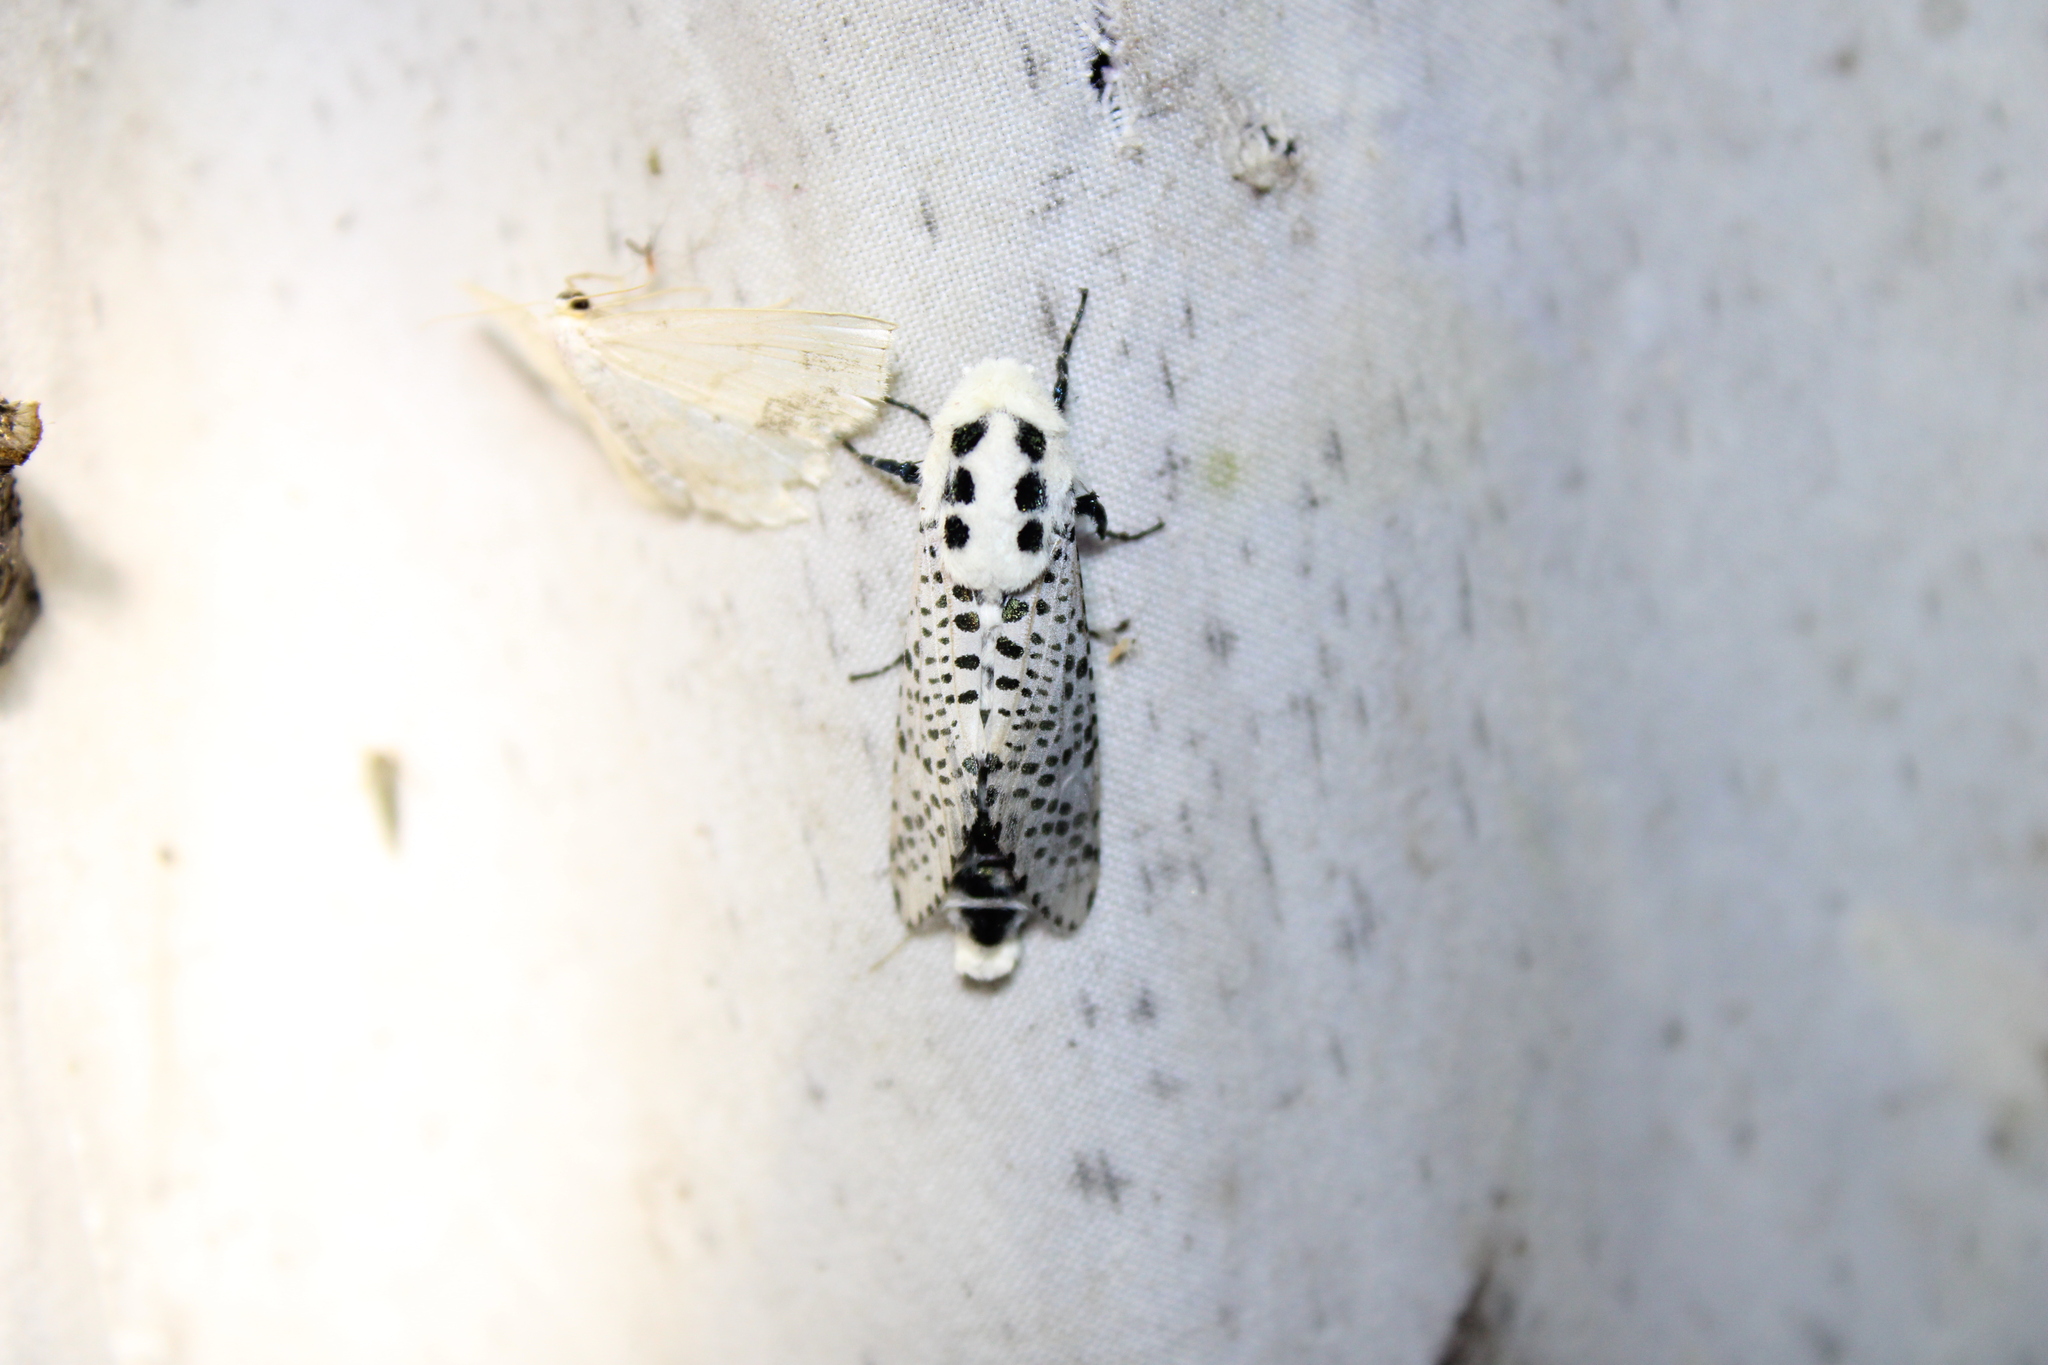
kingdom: Animalia
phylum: Arthropoda
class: Insecta
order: Lepidoptera
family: Cossidae
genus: Zeuzera
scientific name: Zeuzera pyrina
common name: Leopard moth
